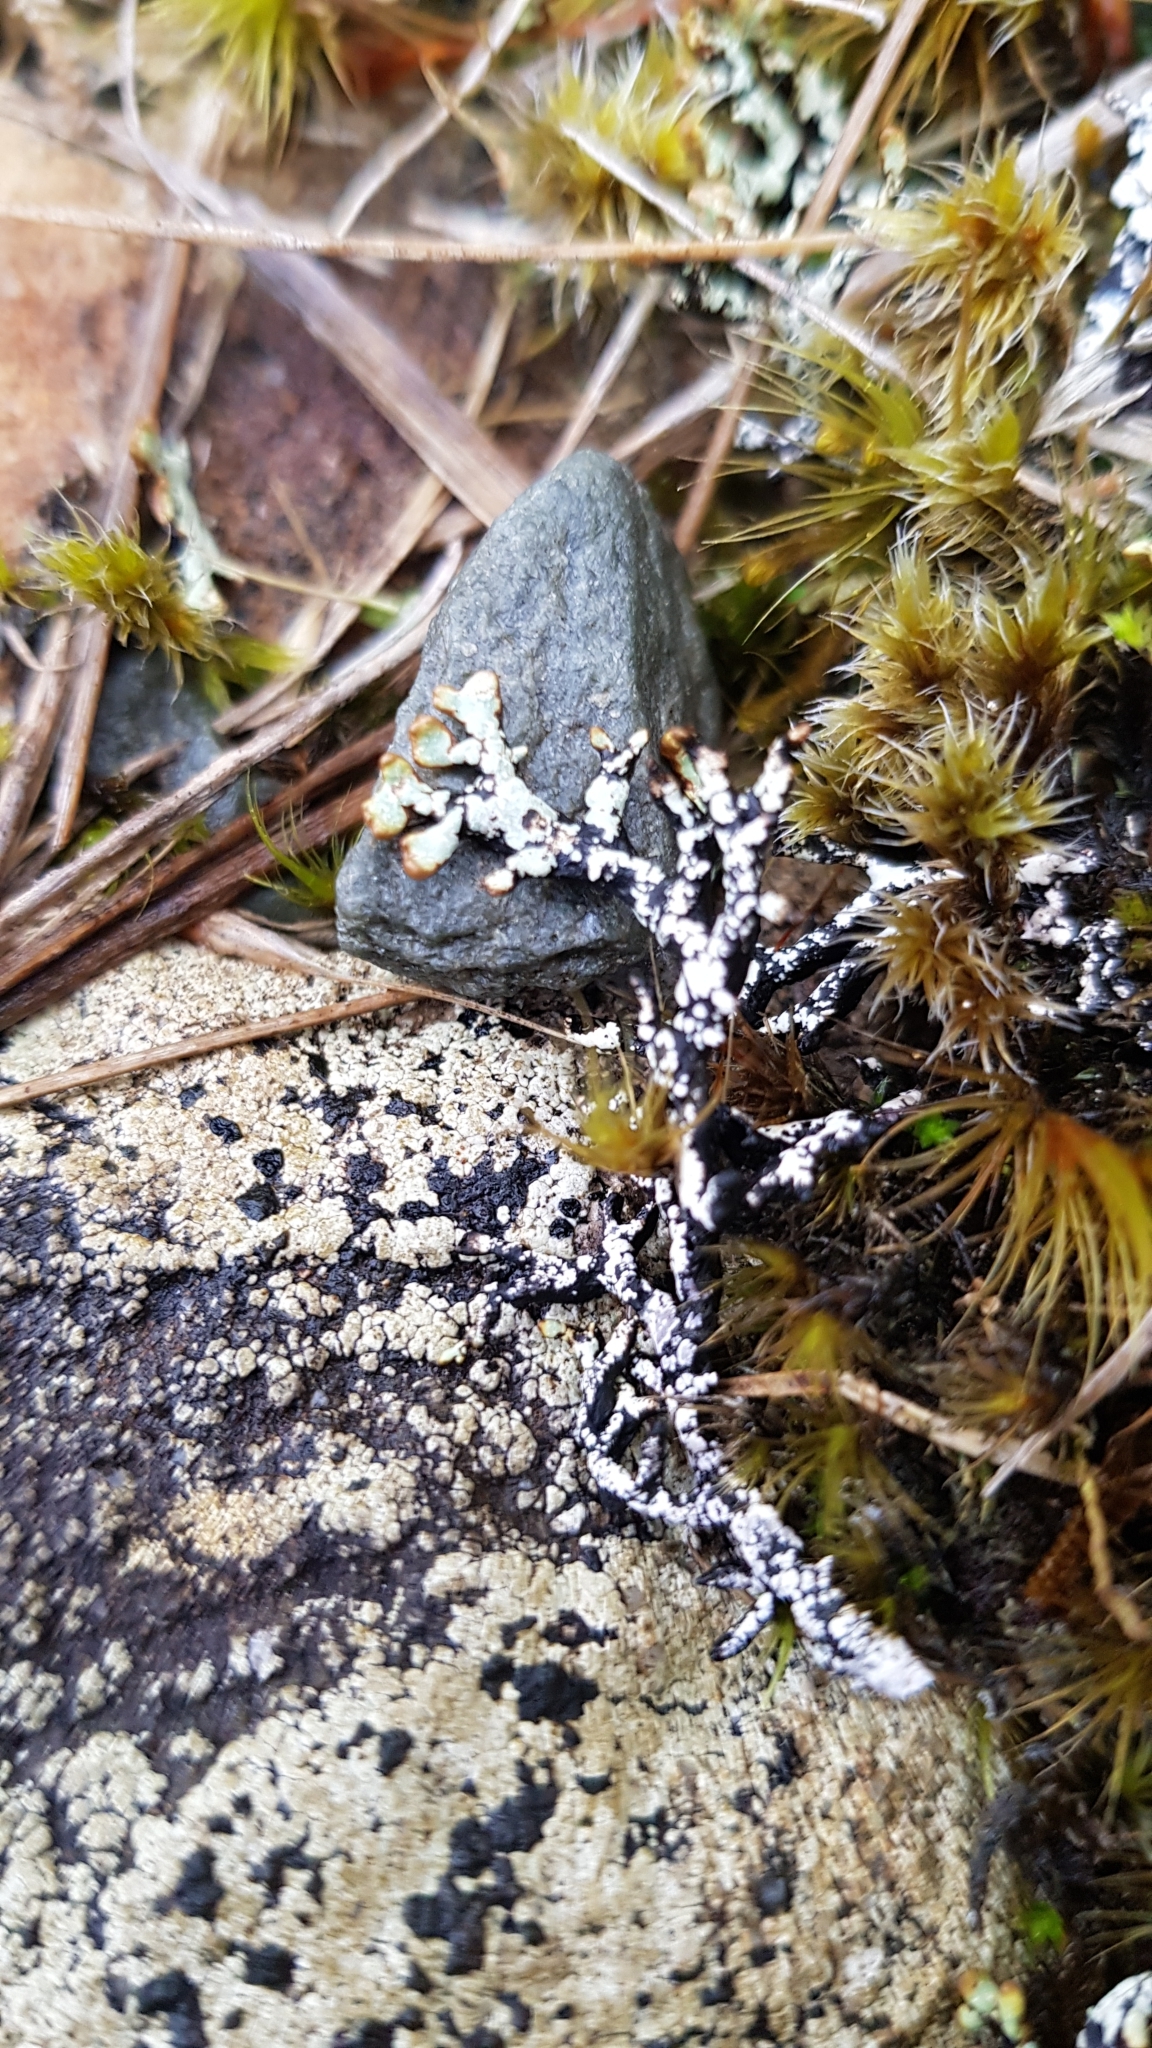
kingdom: Fungi
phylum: Ascomycota
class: Lecanoromycetes
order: Lecanorales
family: Parmeliaceae
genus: Hypogymnia
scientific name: Hypogymnia lugubris
